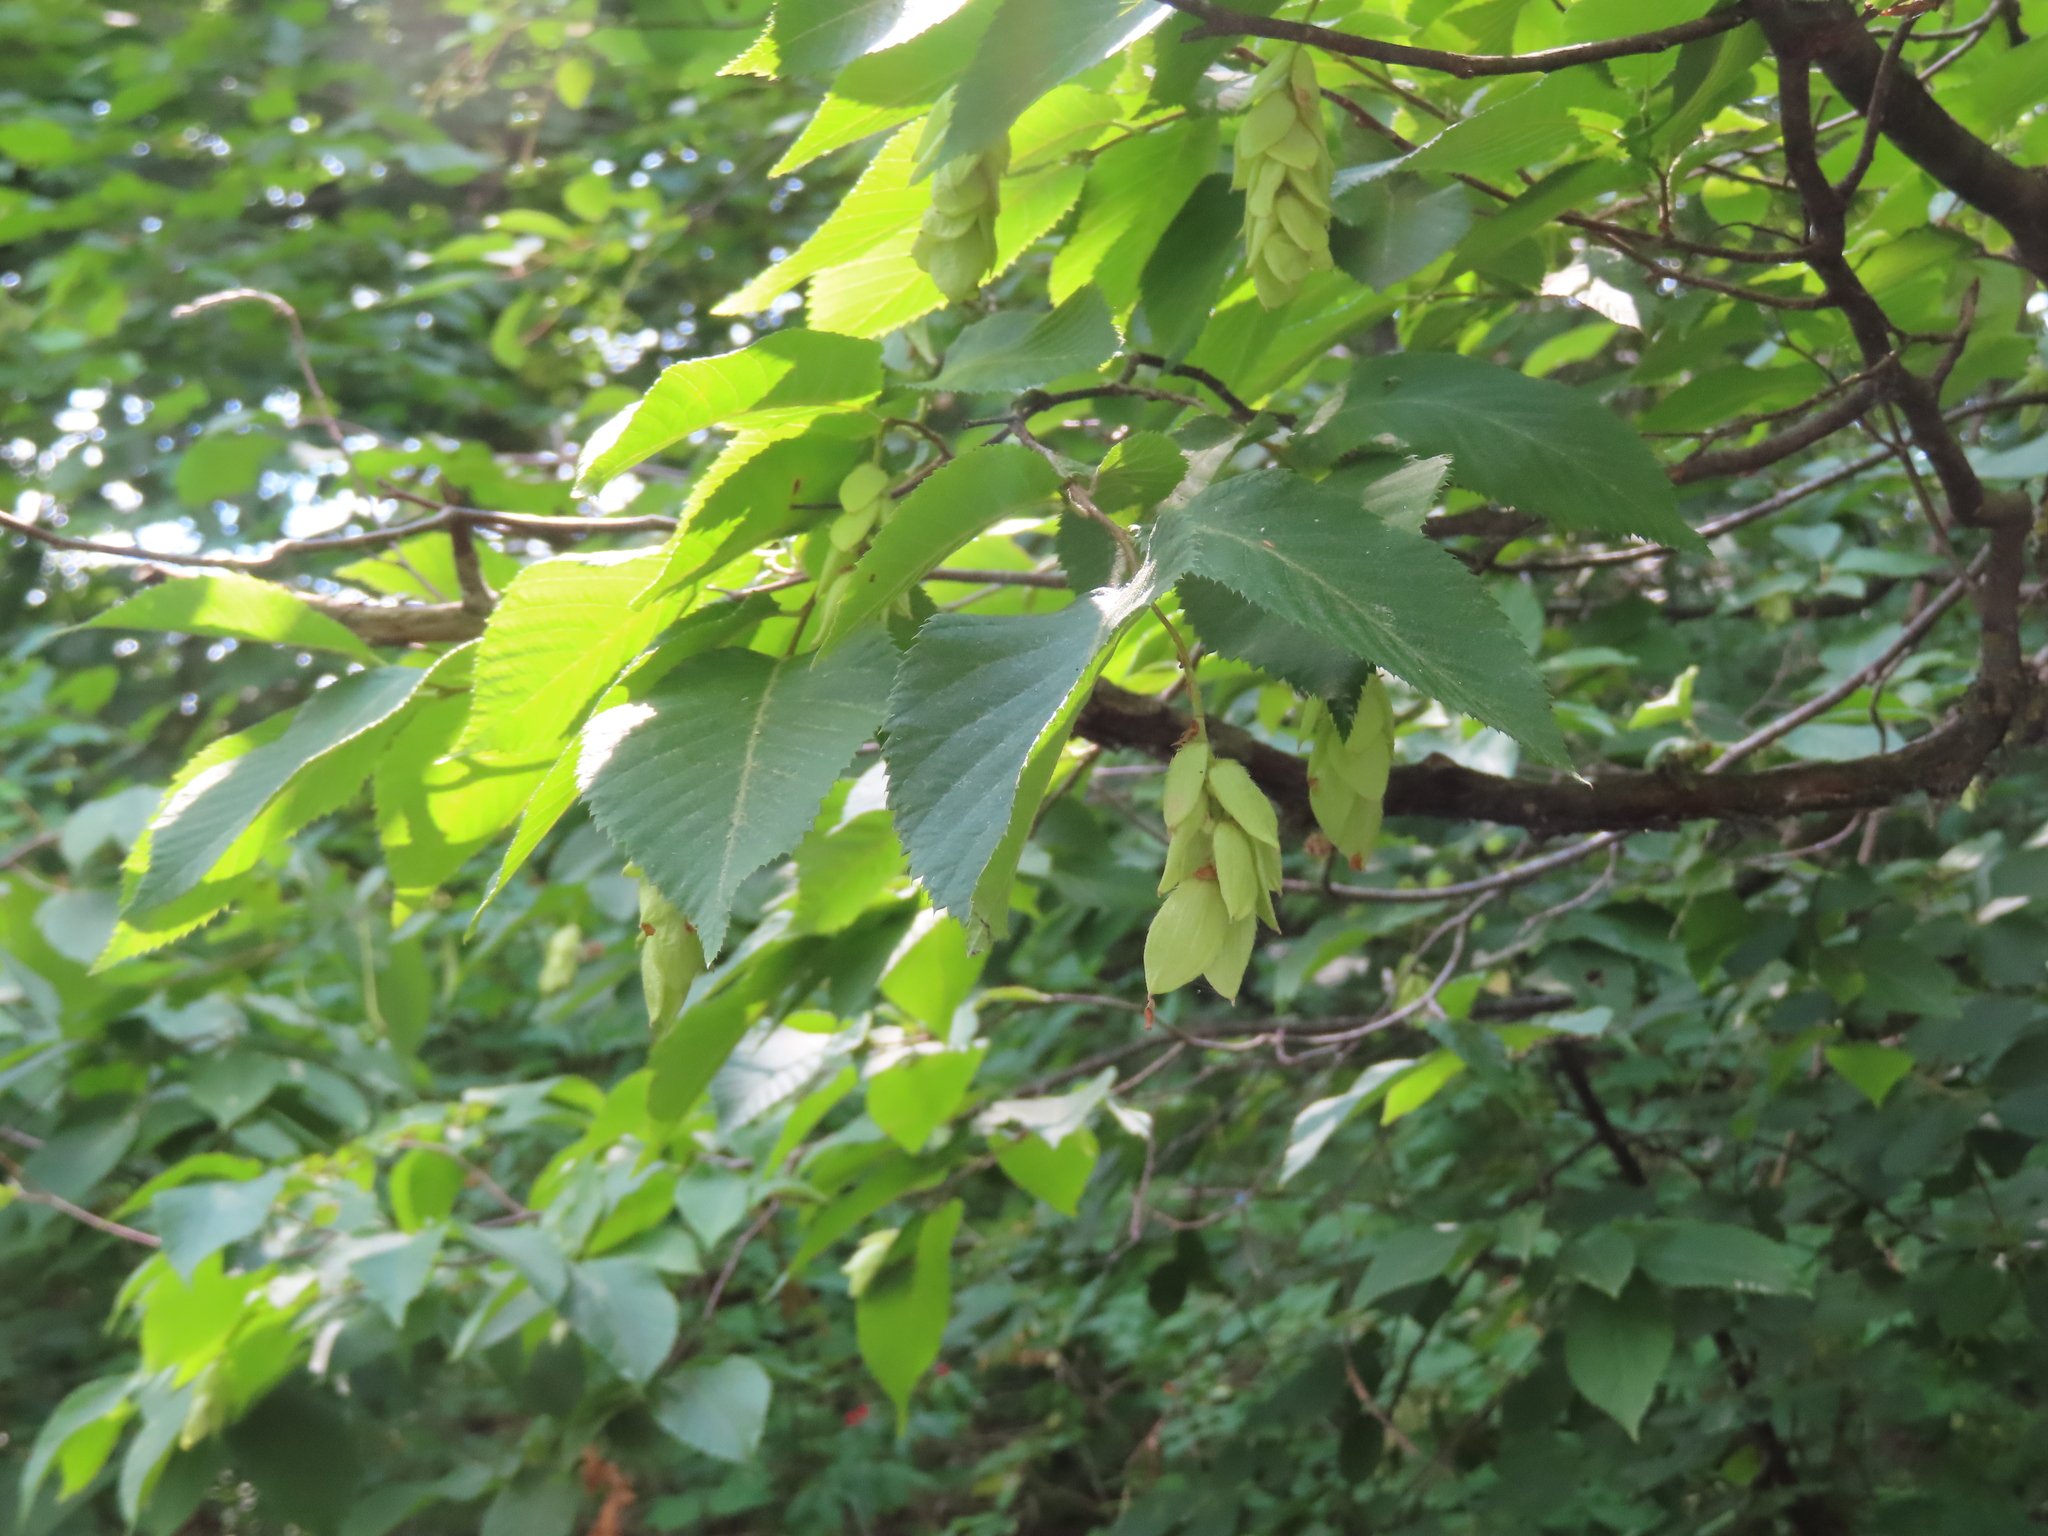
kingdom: Plantae
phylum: Tracheophyta
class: Magnoliopsida
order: Fagales
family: Betulaceae
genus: Ostrya
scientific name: Ostrya virginiana
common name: Ironwood
